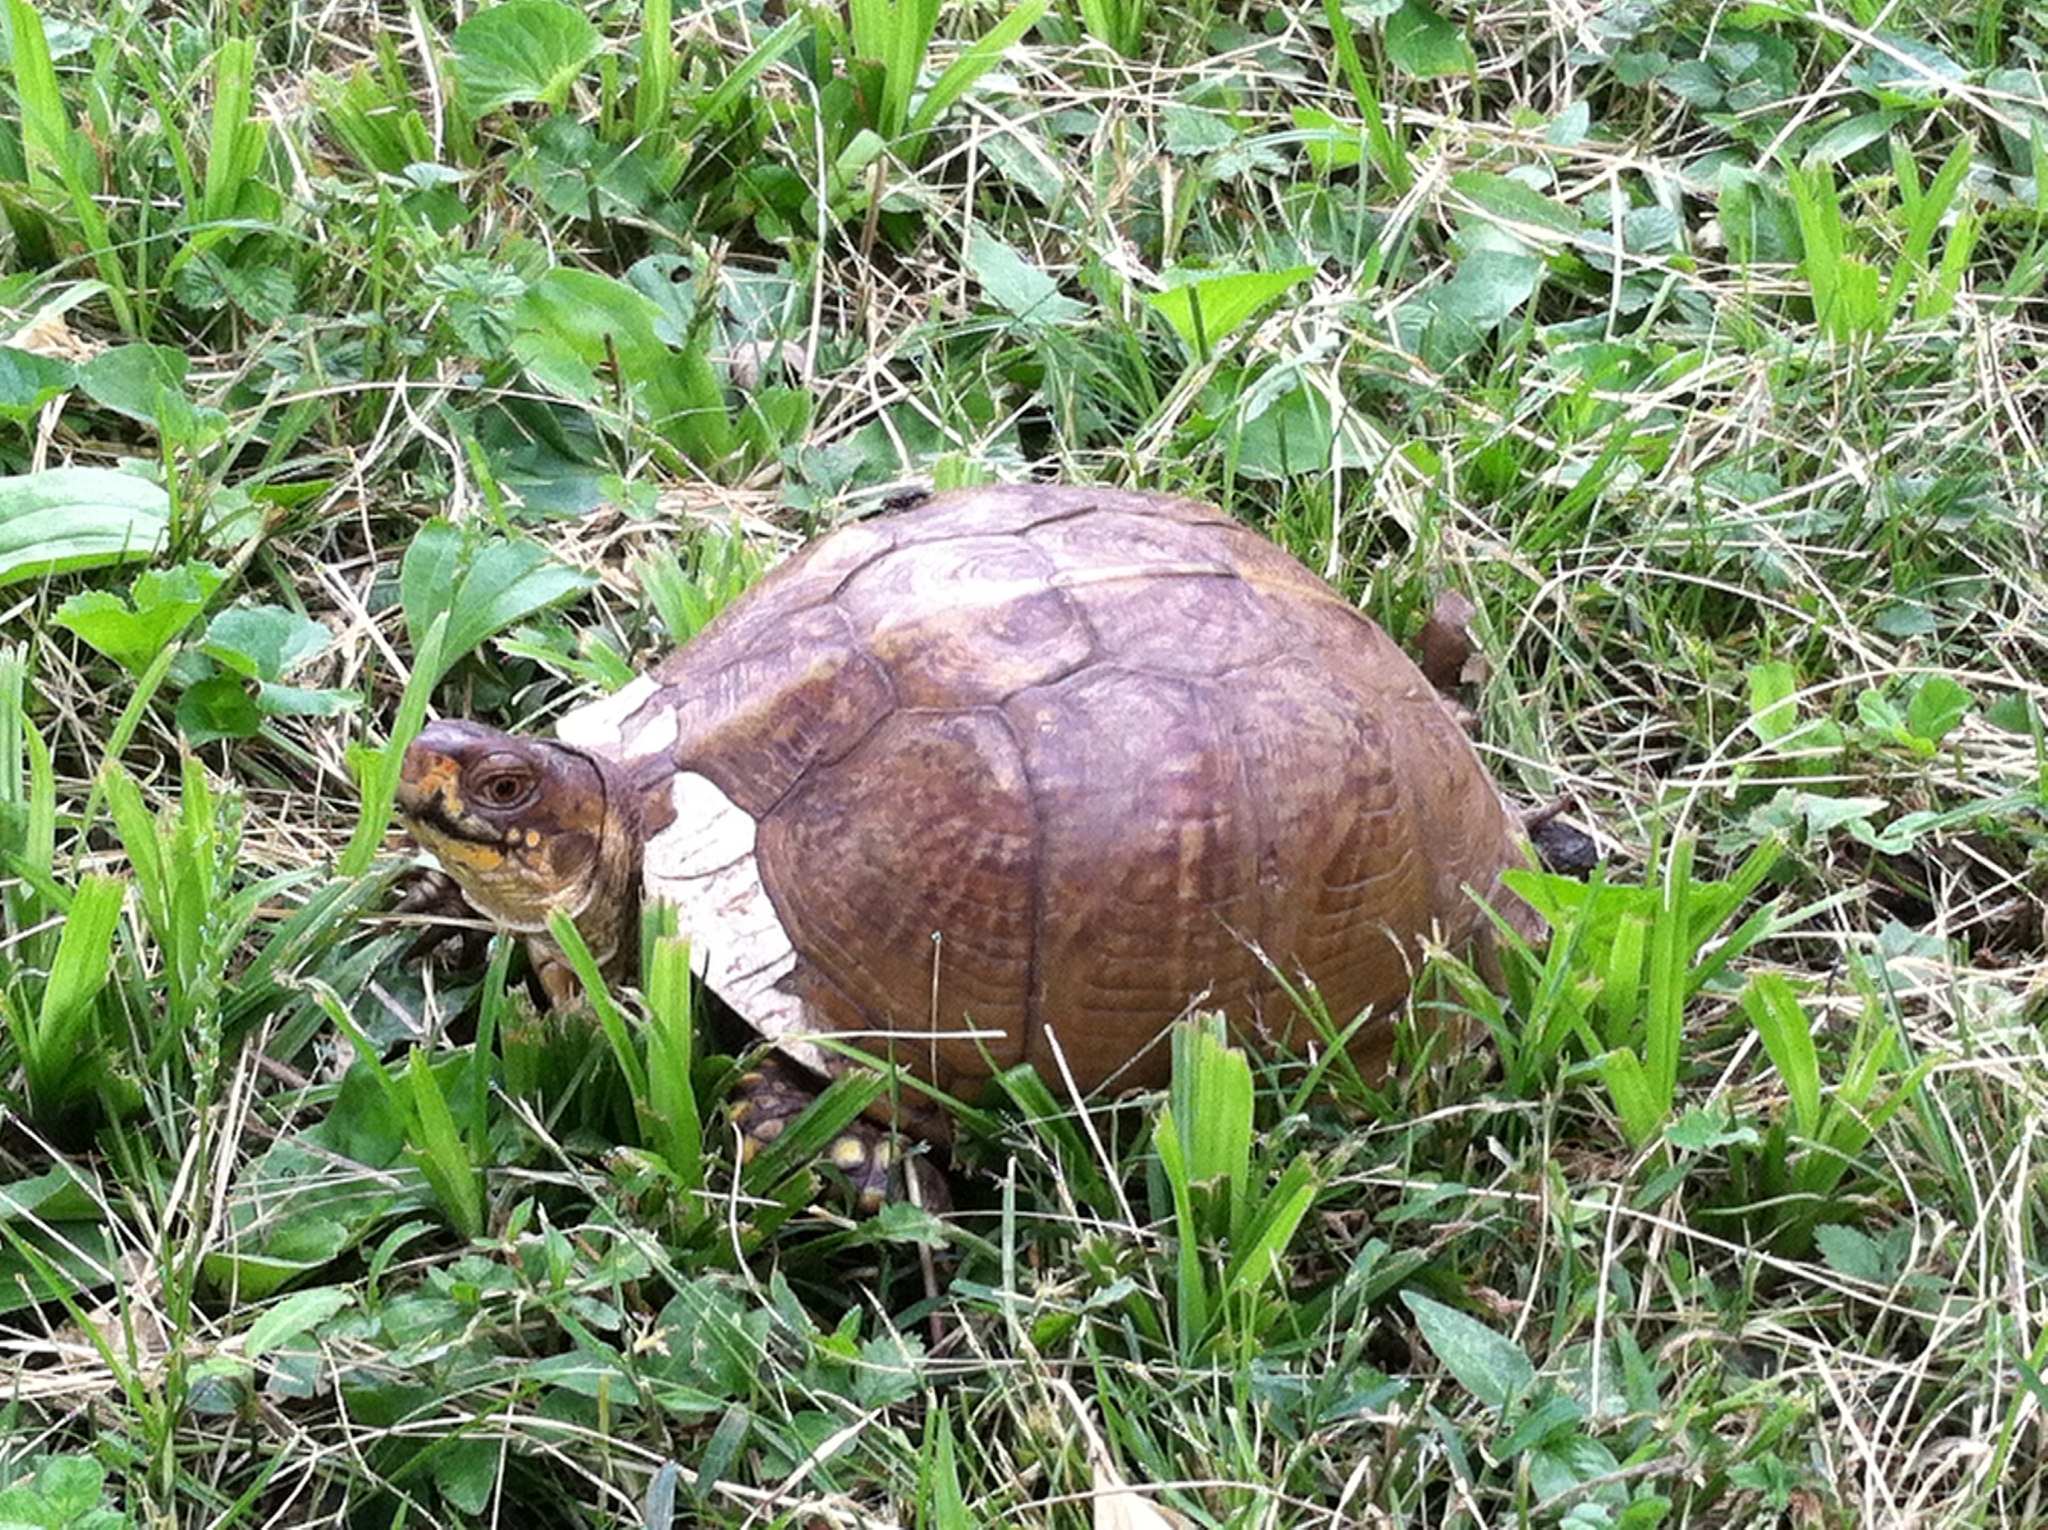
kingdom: Animalia
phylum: Chordata
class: Testudines
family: Emydidae
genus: Terrapene
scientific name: Terrapene carolina
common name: Common box turtle
